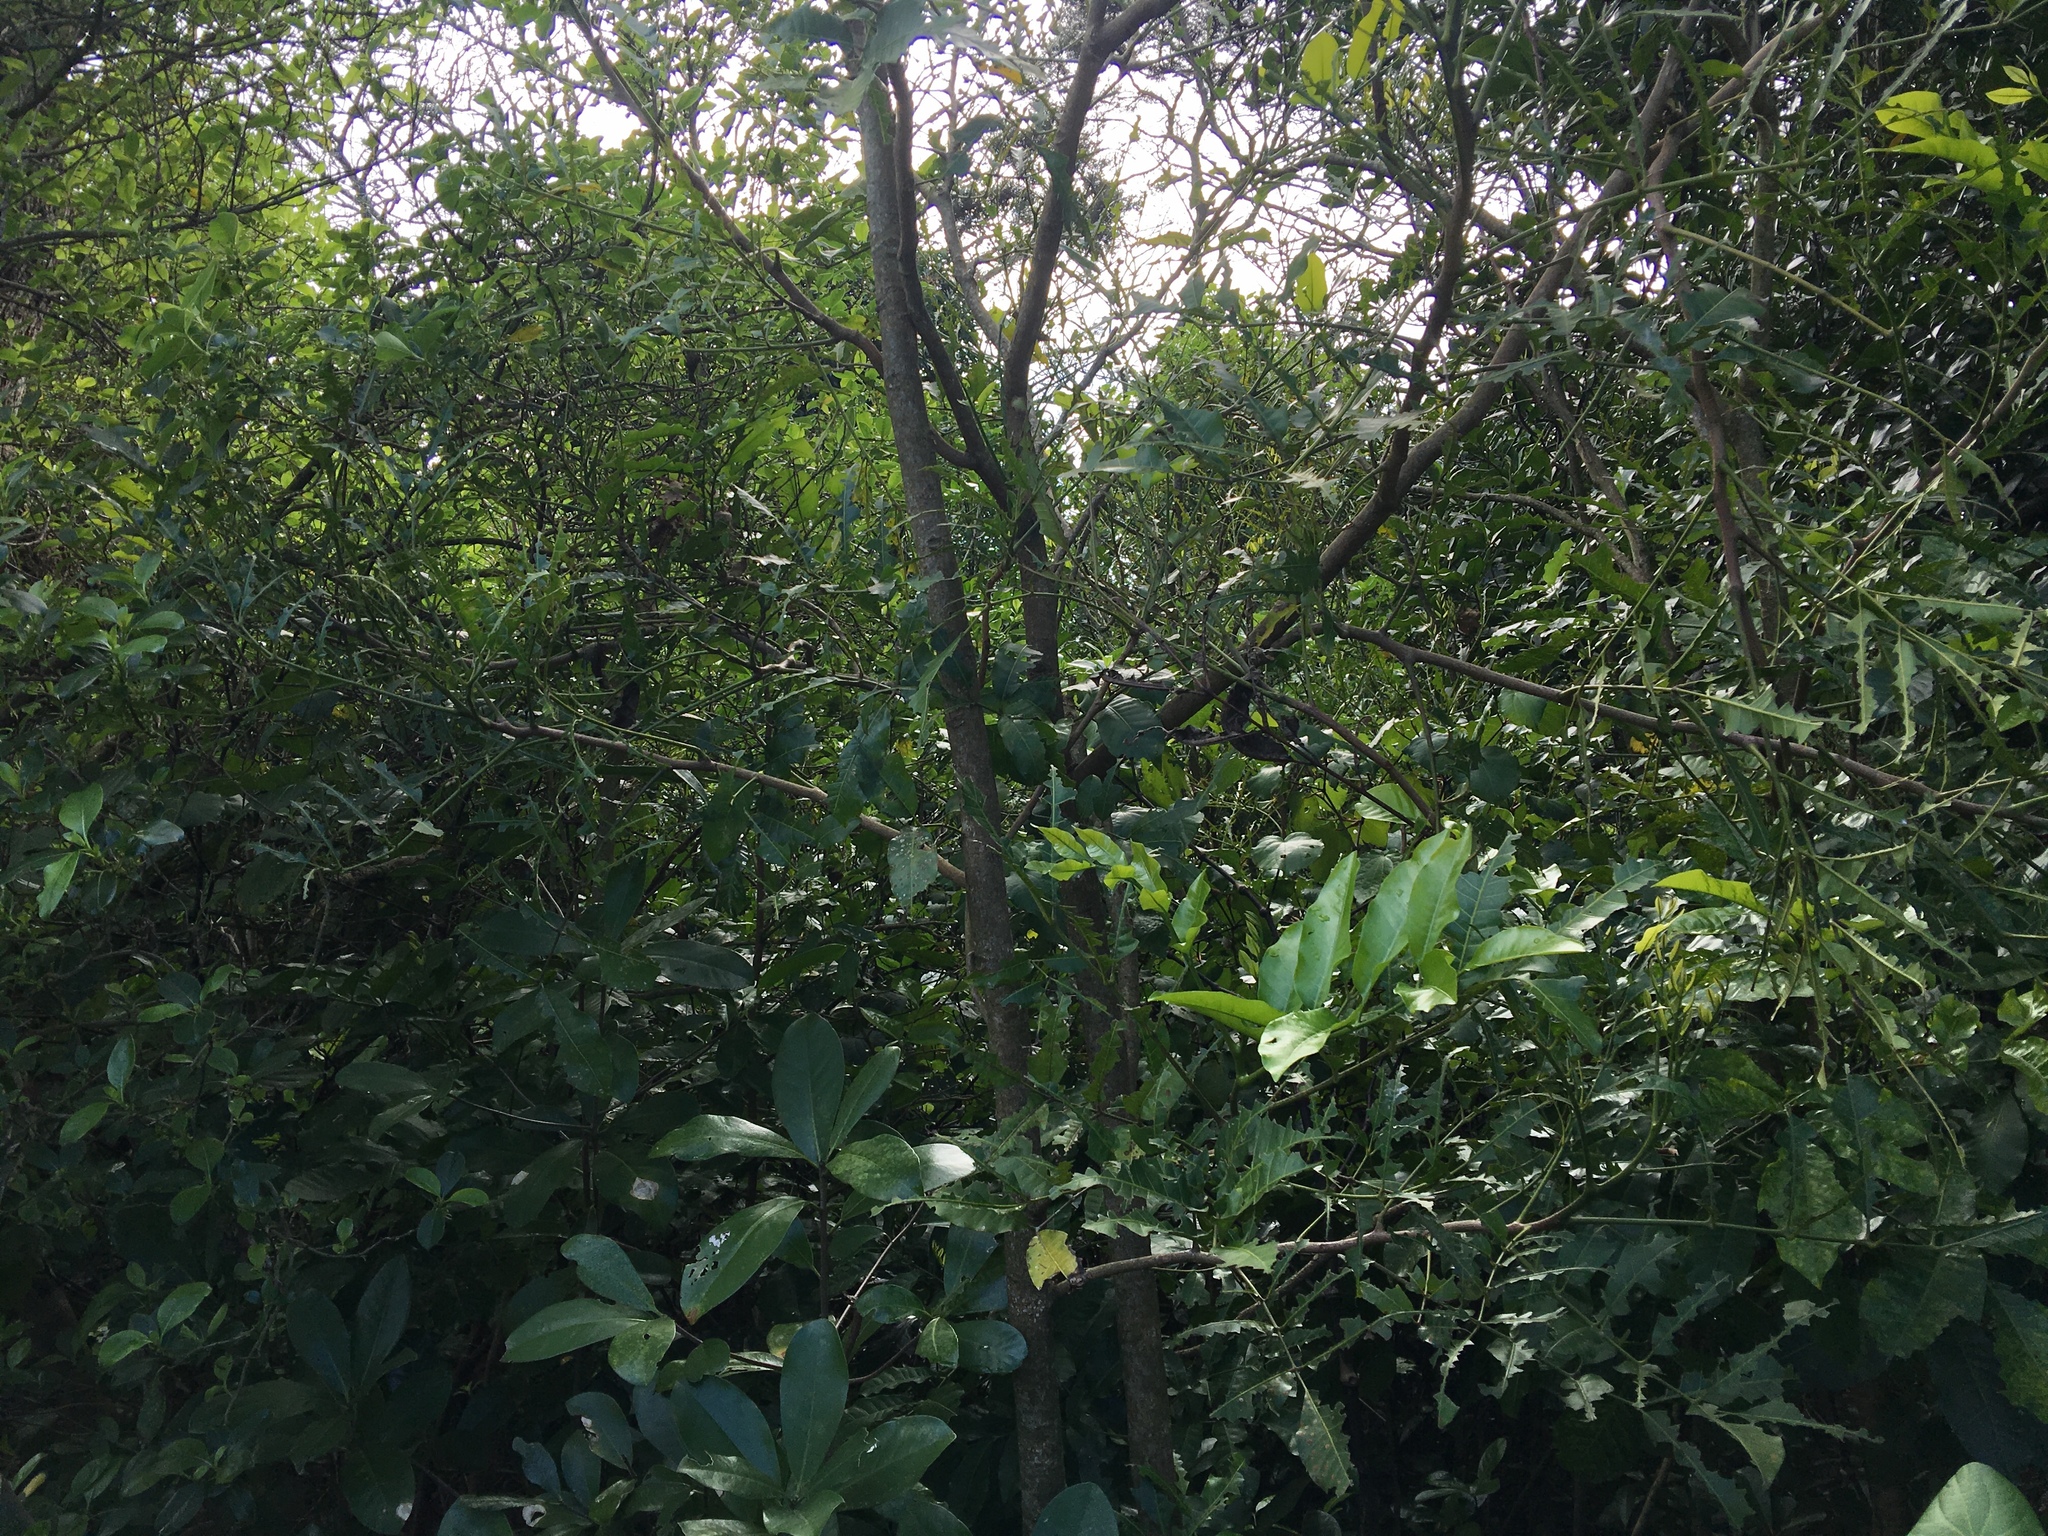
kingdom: Plantae
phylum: Tracheophyta
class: Magnoliopsida
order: Sapindales
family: Meliaceae
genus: Didymocheton
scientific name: Didymocheton spectabilis
